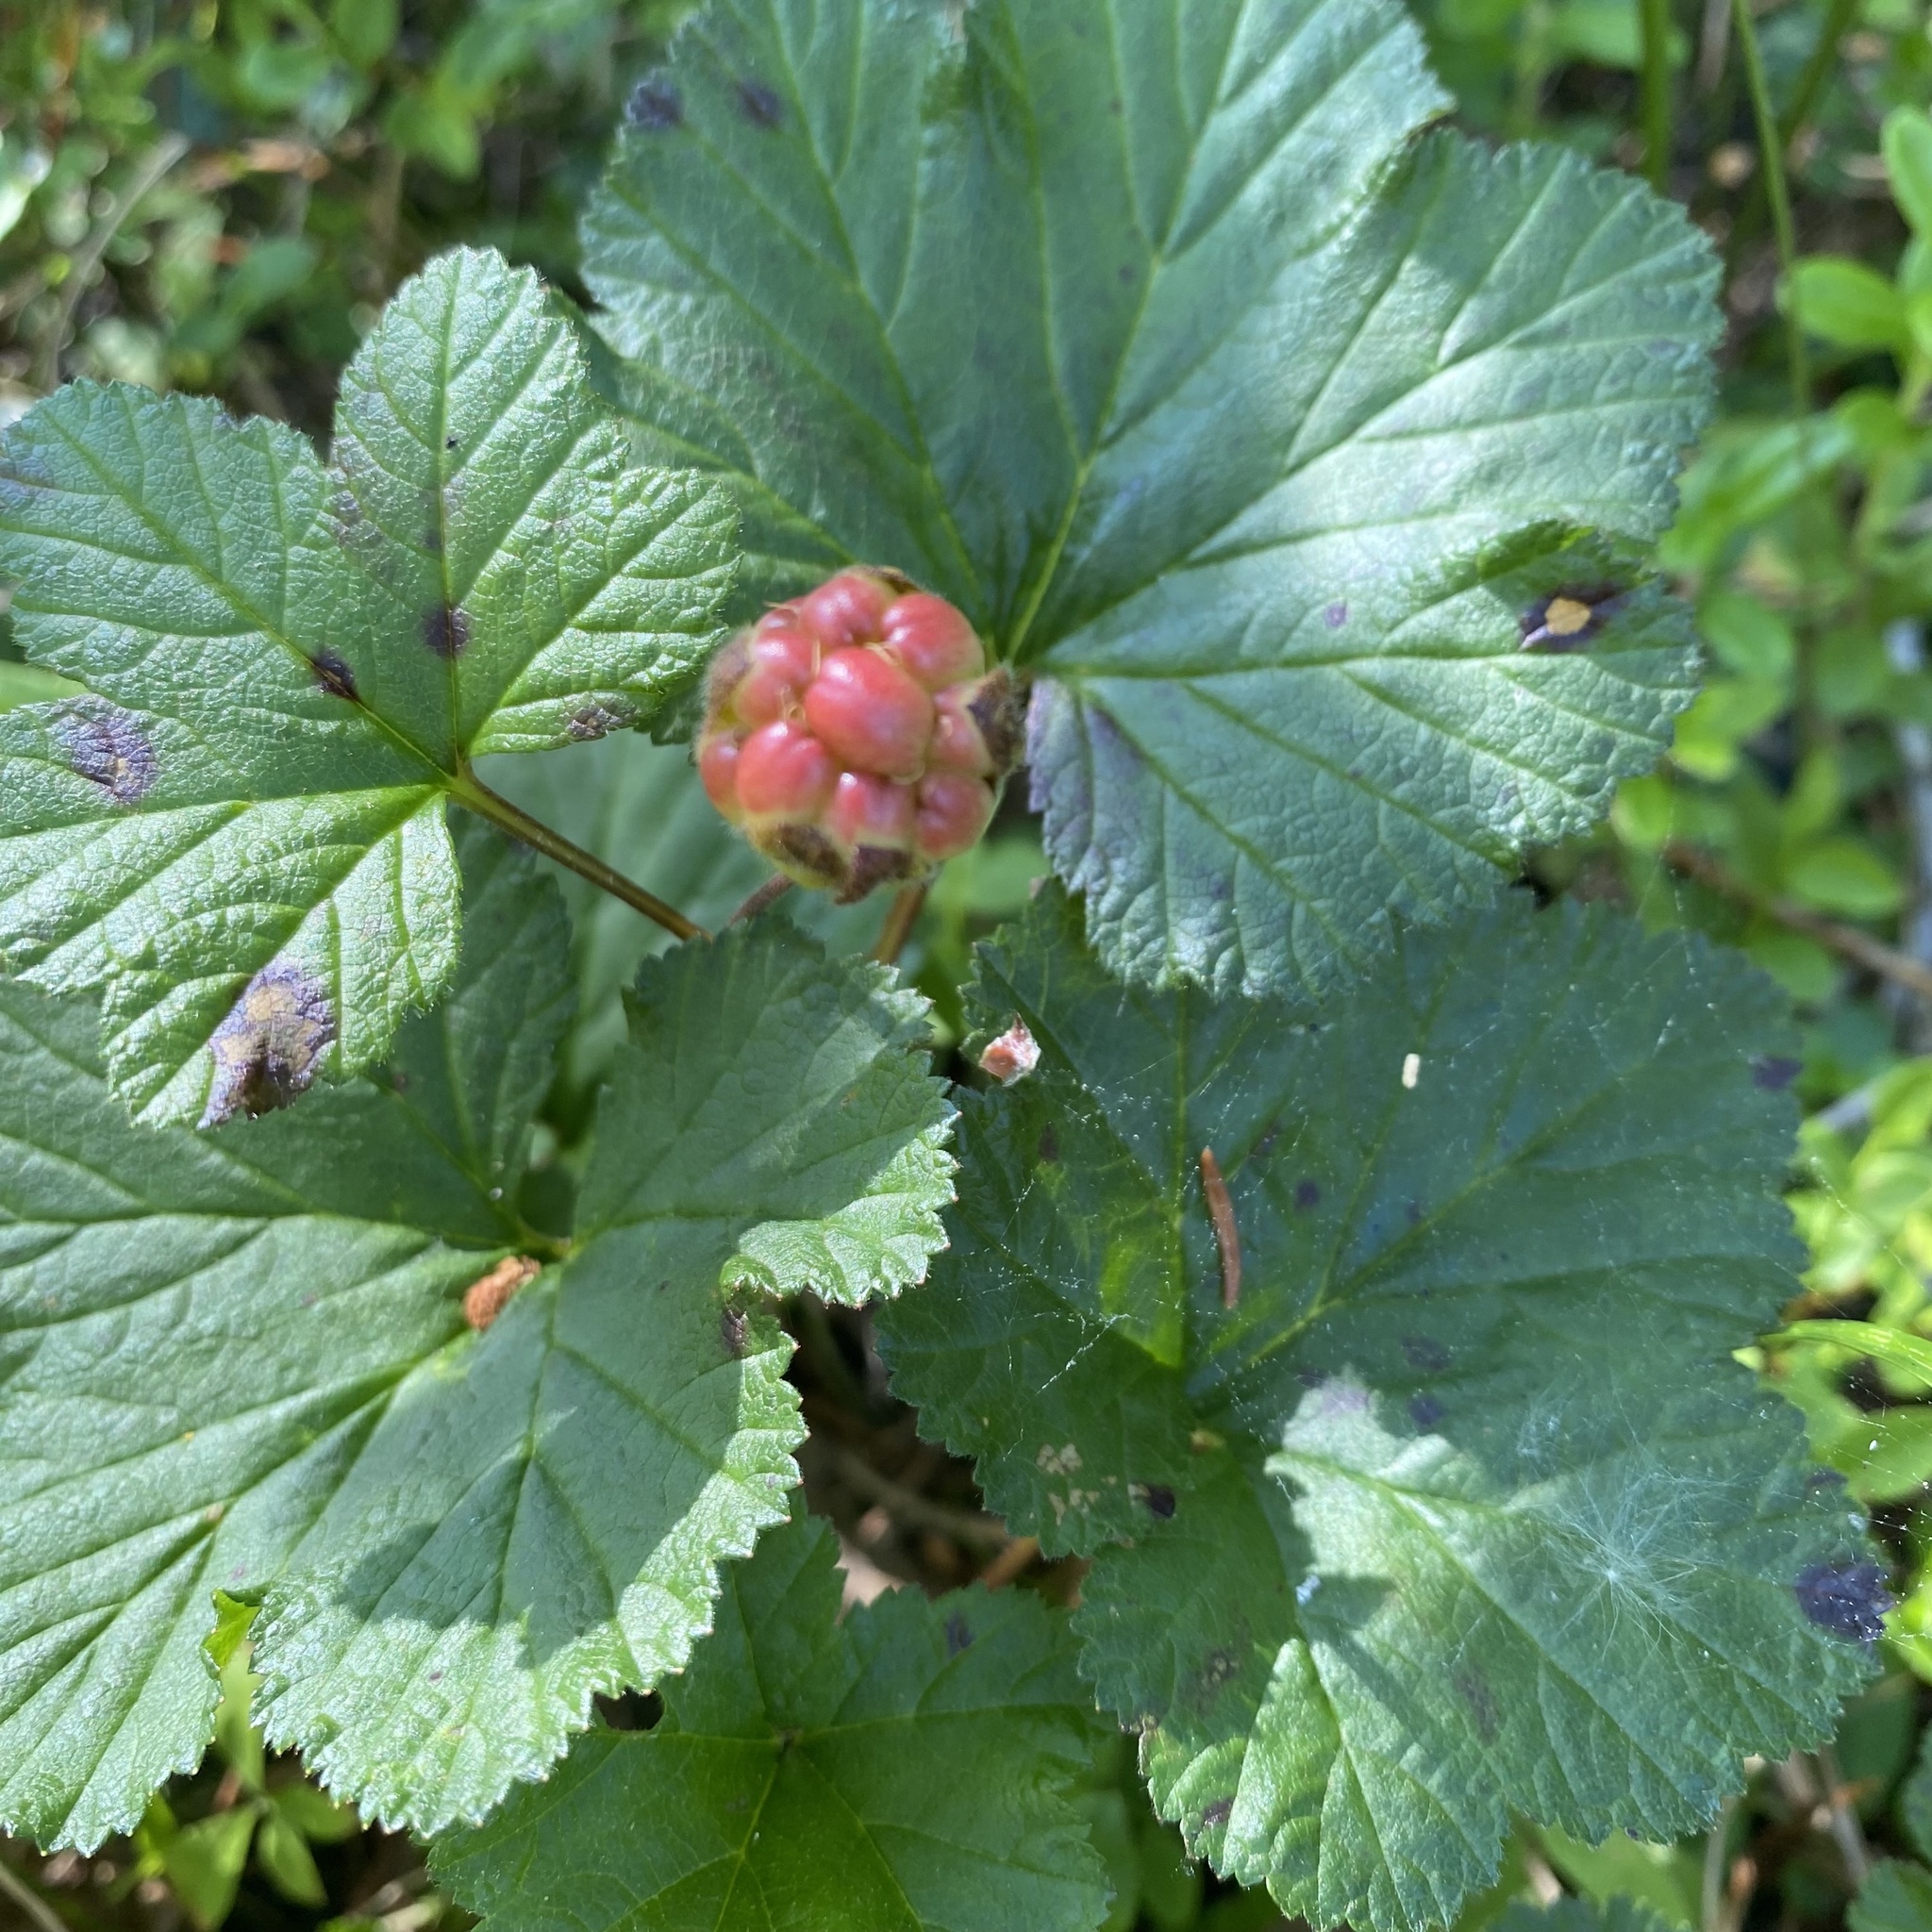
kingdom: Plantae
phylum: Tracheophyta
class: Magnoliopsida
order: Rosales
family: Rosaceae
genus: Rubus
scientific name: Rubus chamaemorus
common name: Cloudberry
